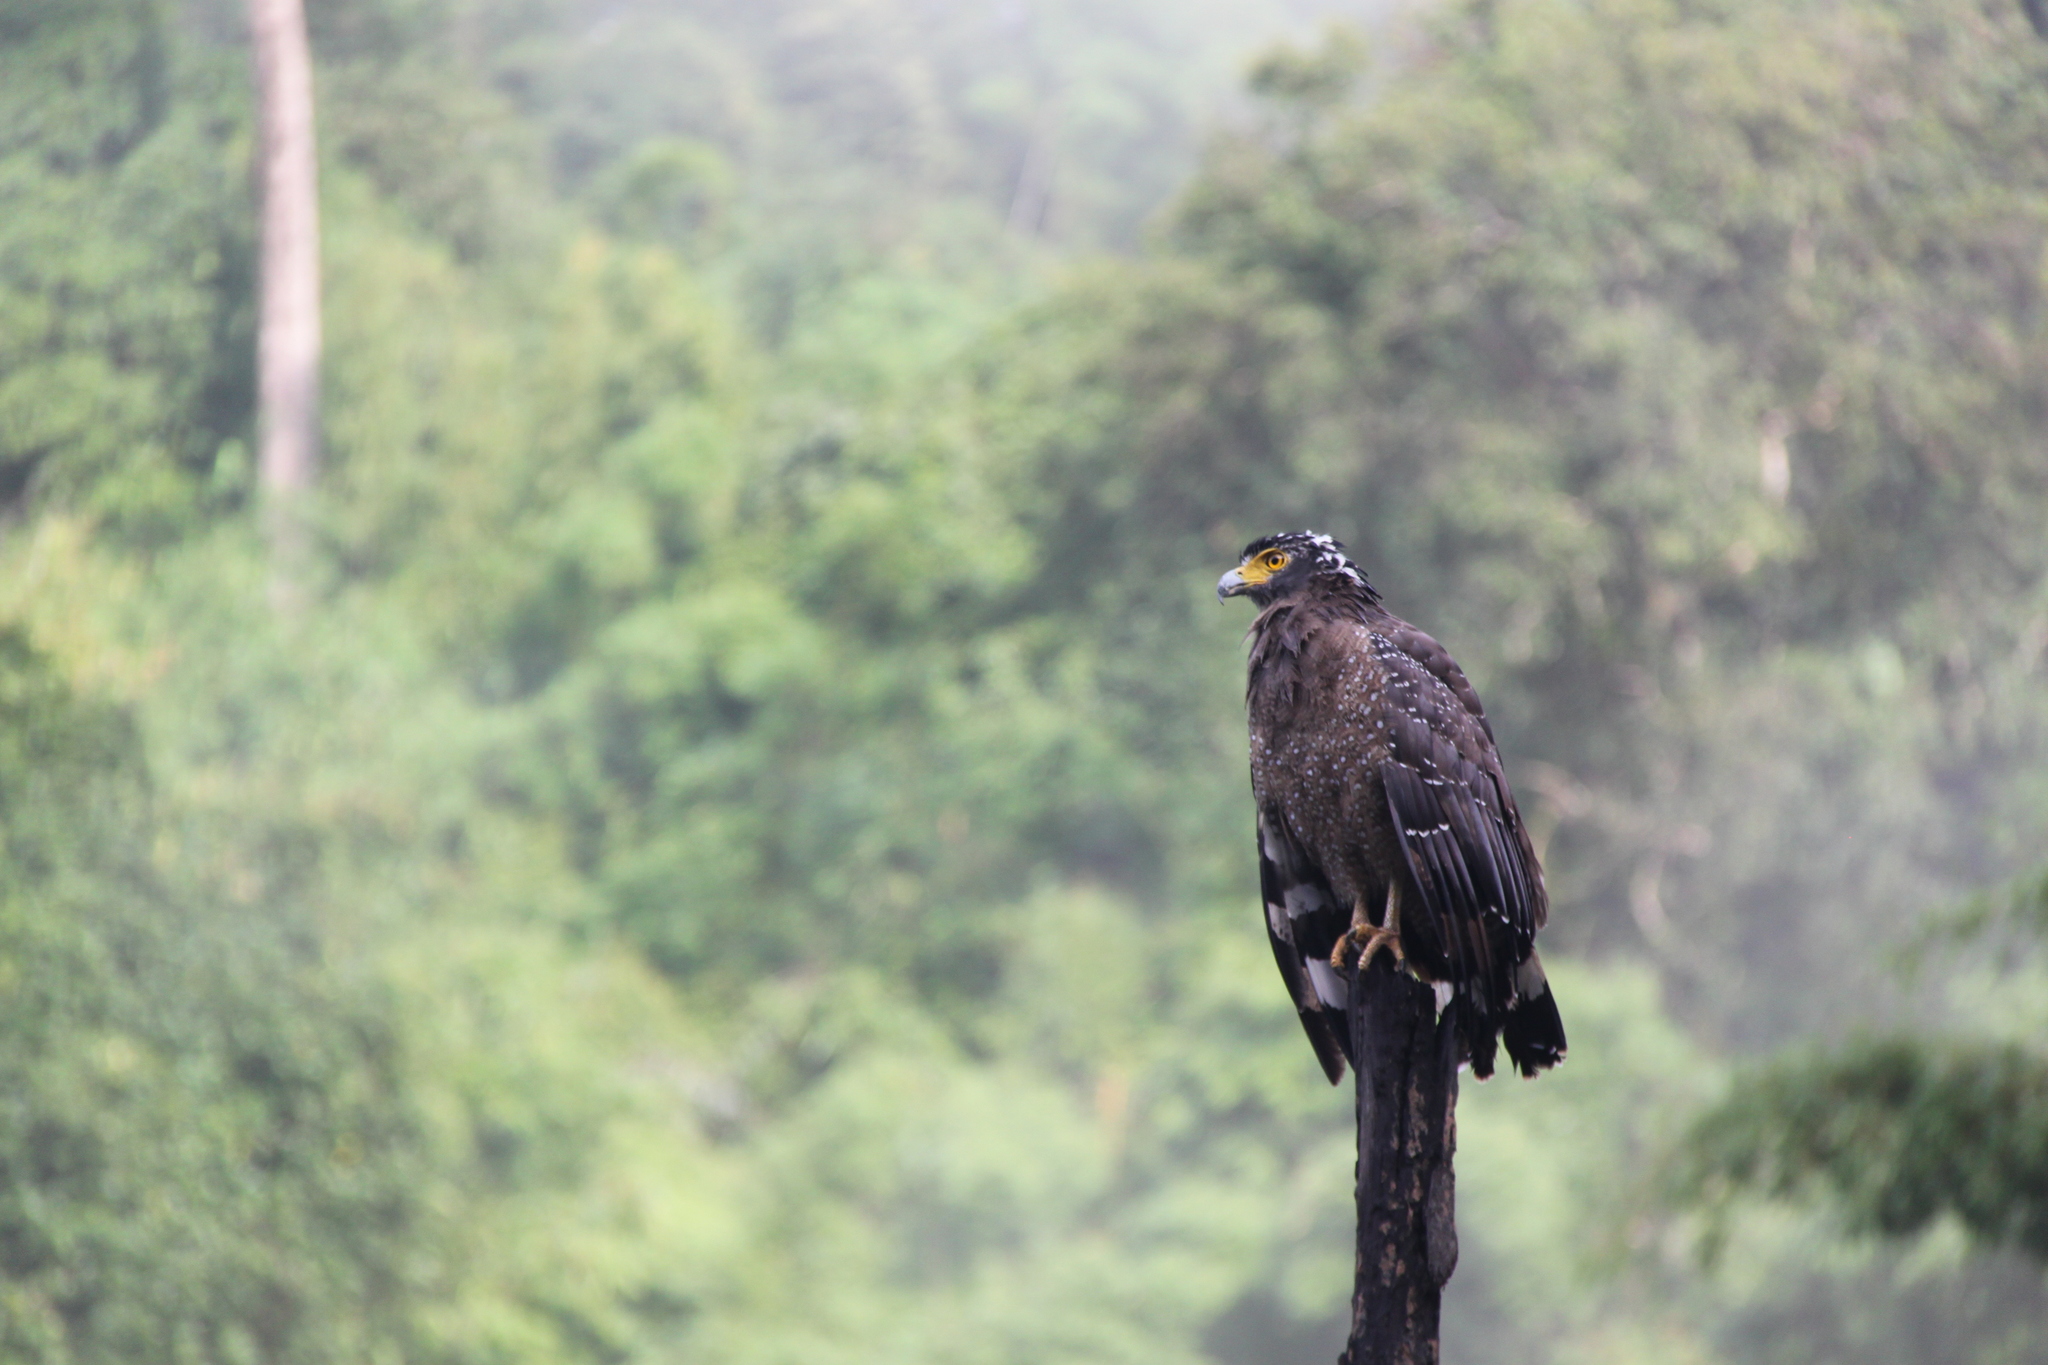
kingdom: Animalia
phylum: Chordata
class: Aves
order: Accipitriformes
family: Accipitridae
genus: Spilornis
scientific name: Spilornis cheela
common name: Crested serpent eagle
